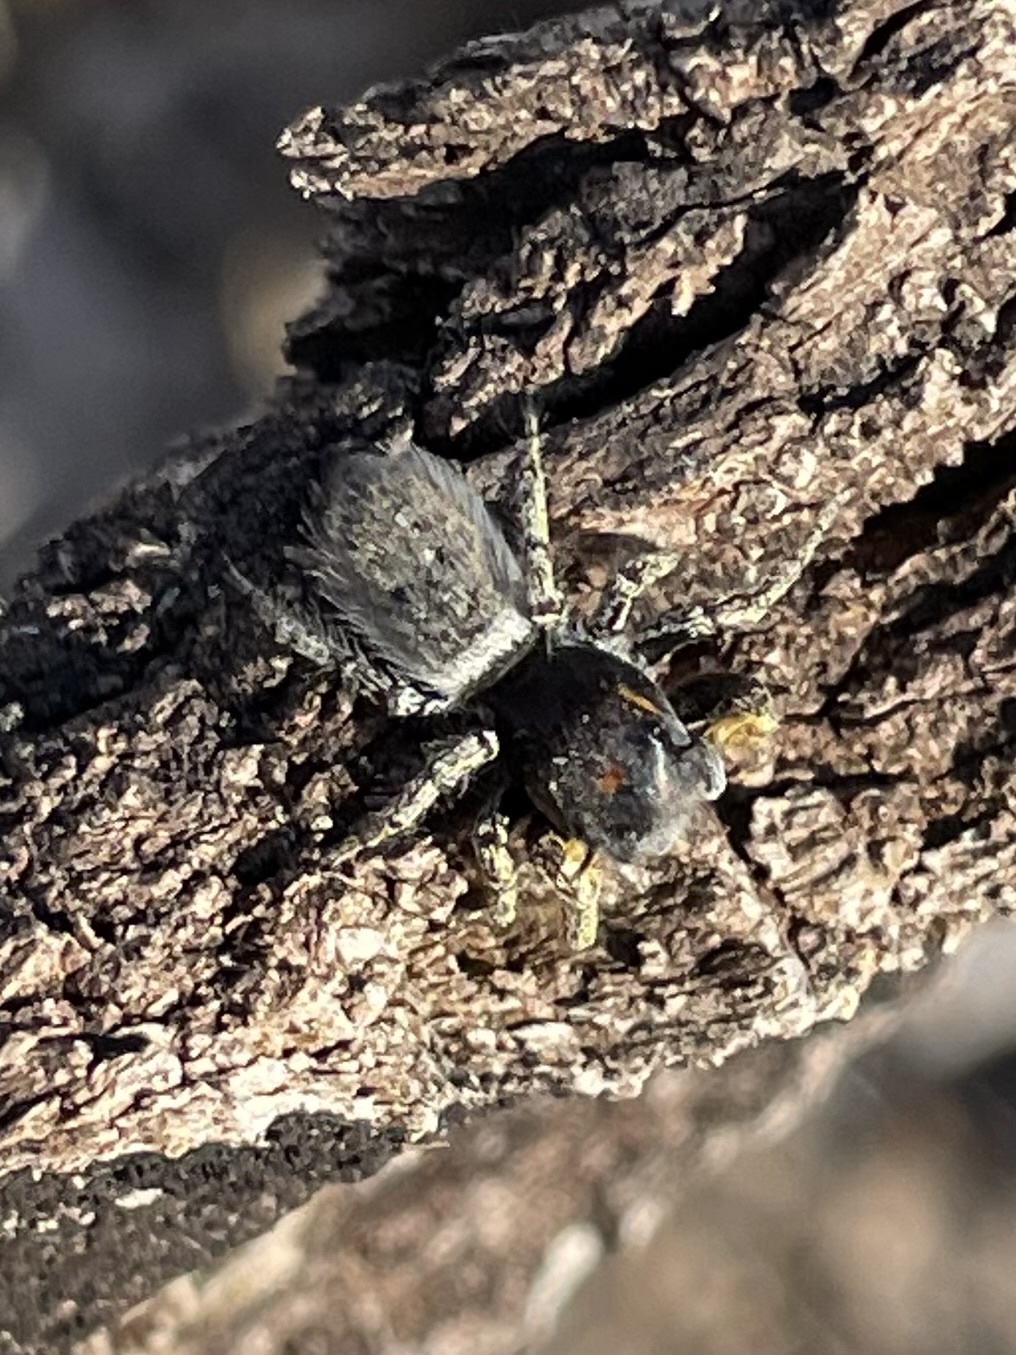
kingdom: Animalia
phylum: Arthropoda
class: Arachnida
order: Araneae
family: Salticidae
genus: Phidippus
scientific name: Phidippus mystaceus
